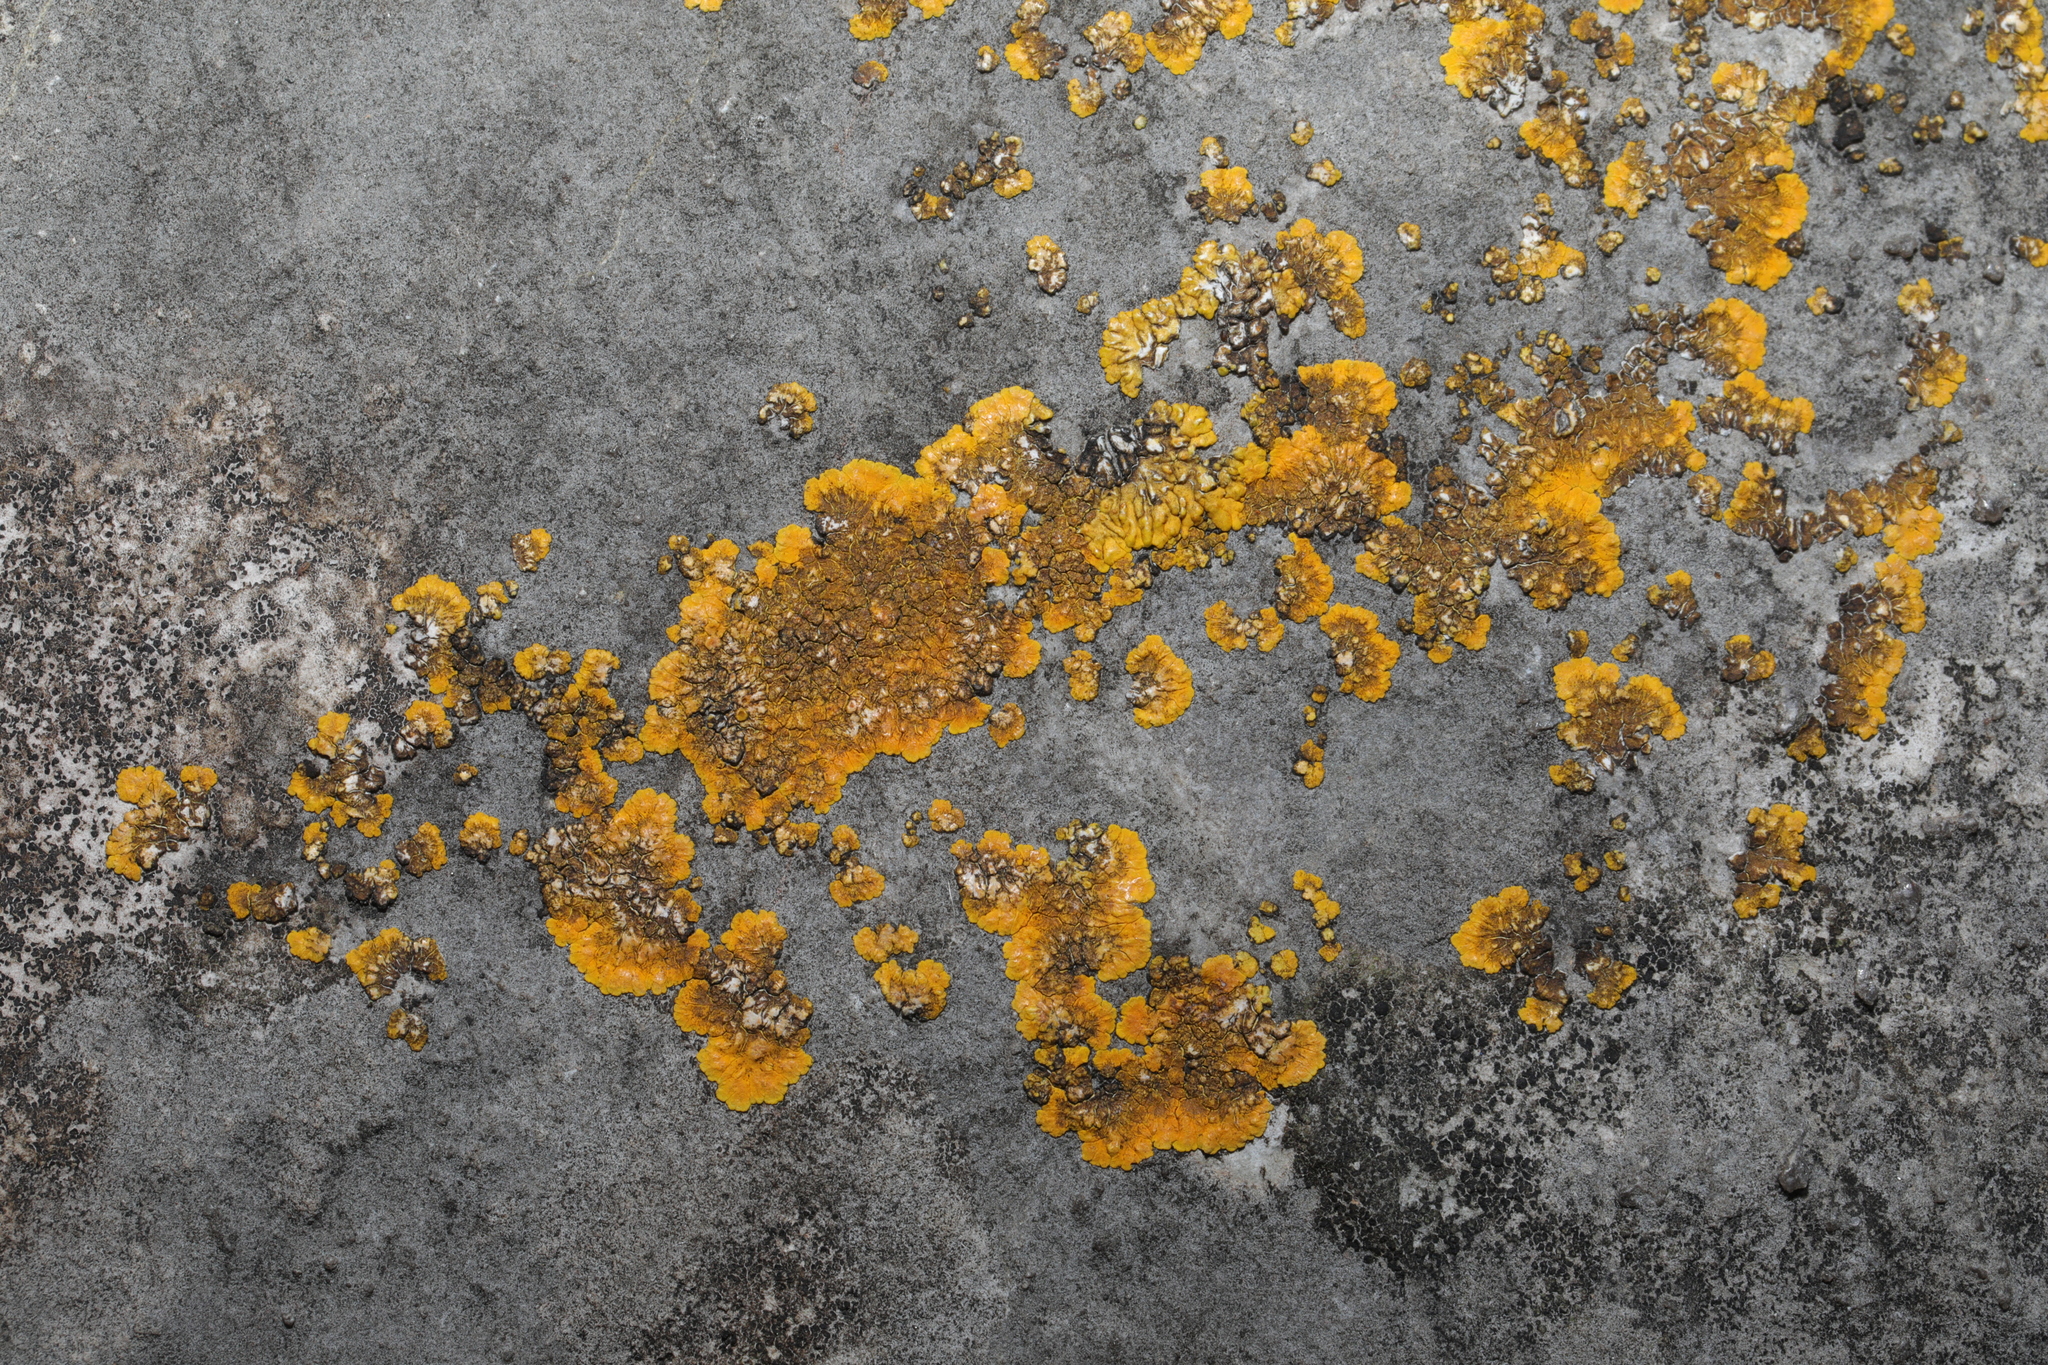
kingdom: Fungi
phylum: Ascomycota
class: Lecanoromycetes
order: Teloschistales
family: Teloschistaceae
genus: Variospora
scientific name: Variospora aurantia
